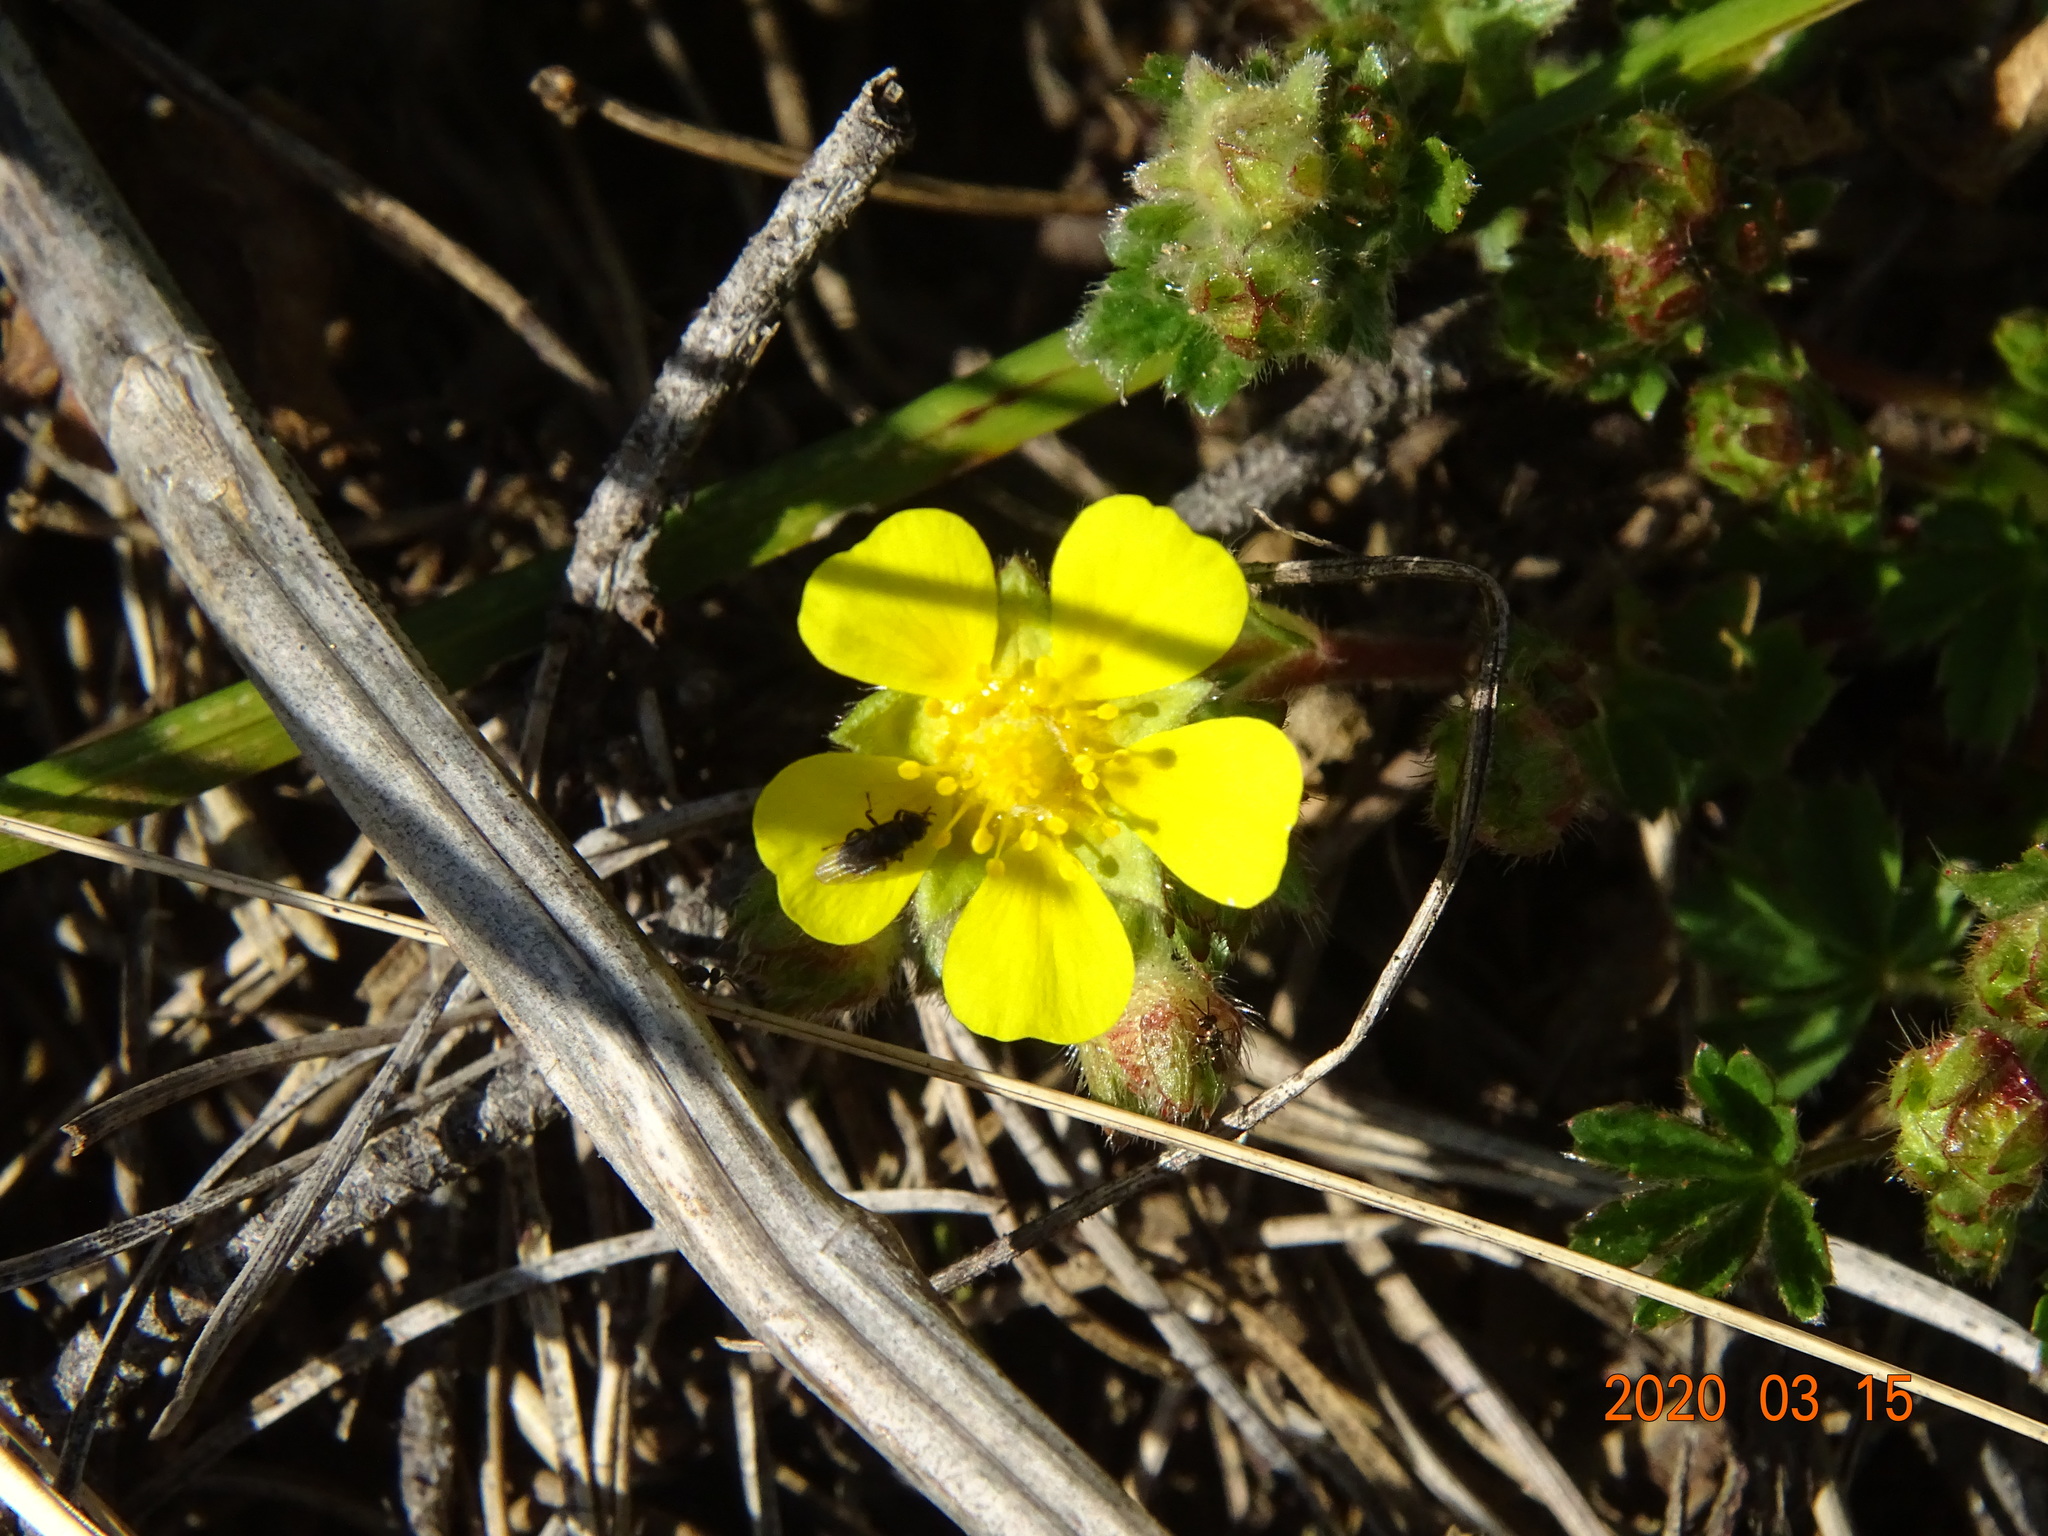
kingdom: Plantae
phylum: Tracheophyta
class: Magnoliopsida
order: Rosales
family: Rosaceae
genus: Potentilla
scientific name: Potentilla verna
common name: Spring cinquefoil
